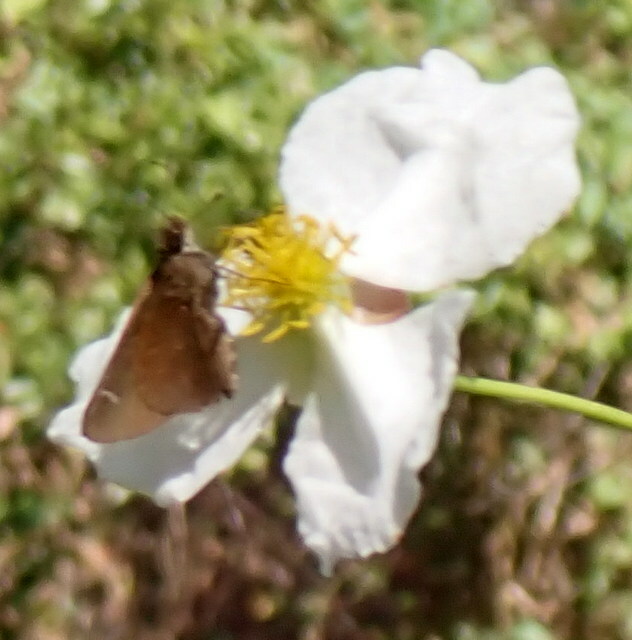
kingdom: Animalia
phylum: Arthropoda
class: Insecta
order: Lepidoptera
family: Hesperiidae
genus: Lerema
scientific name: Lerema accius
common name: Clouded skipper
